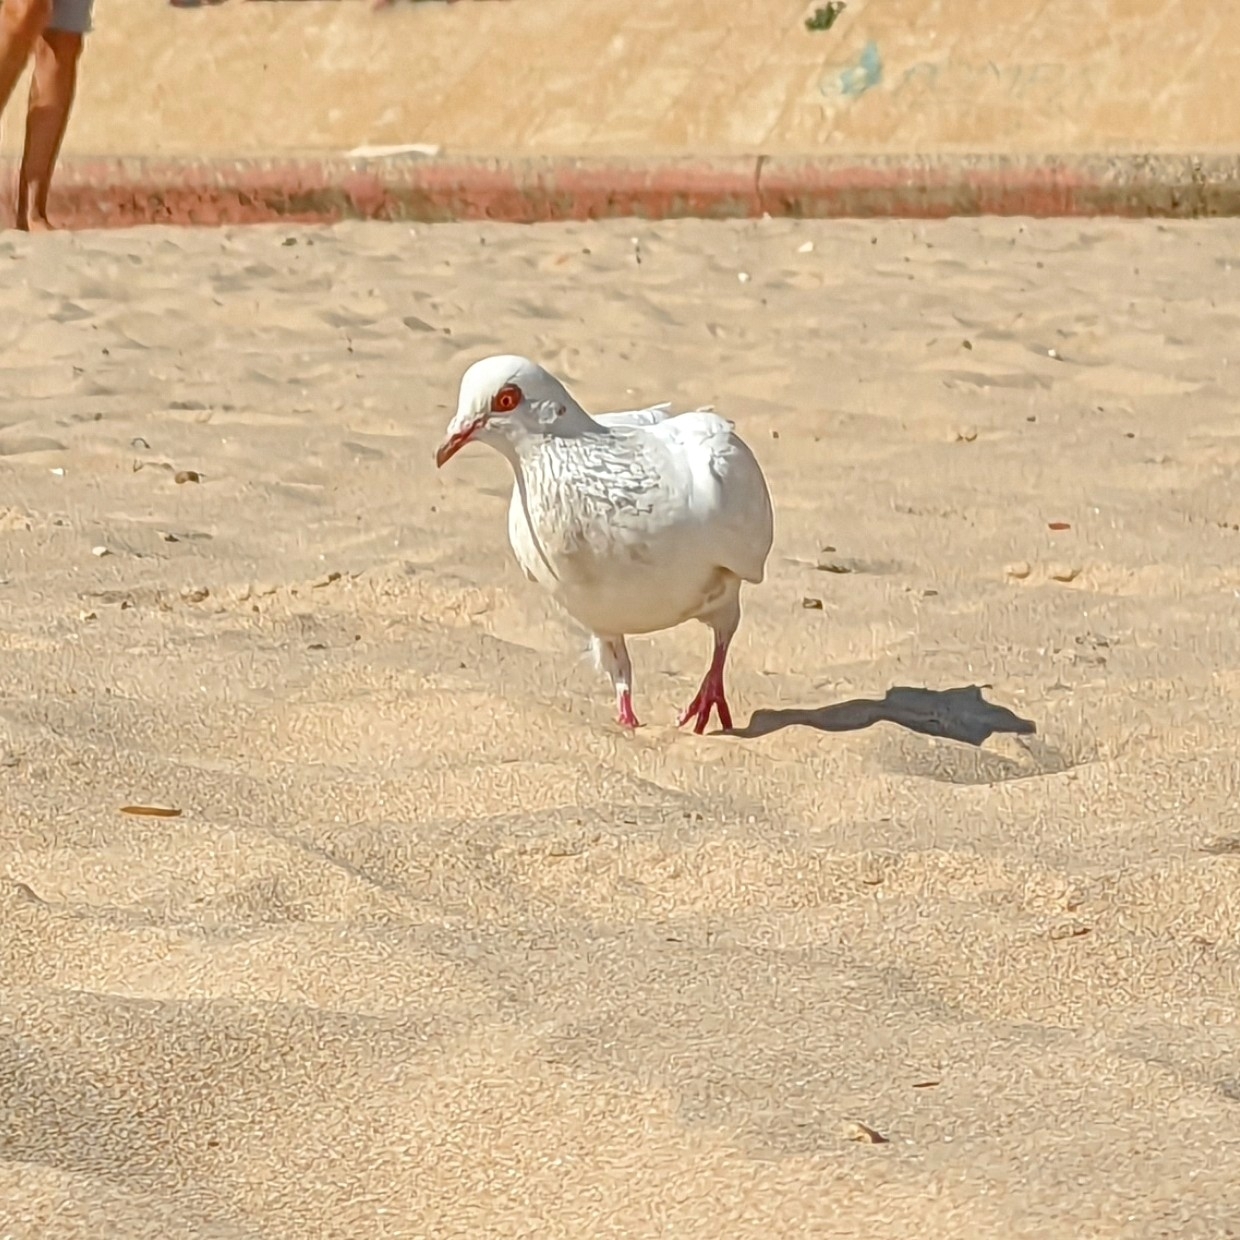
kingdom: Animalia
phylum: Chordata
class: Aves
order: Columbiformes
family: Columbidae
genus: Columba
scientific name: Columba livia
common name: Rock pigeon
